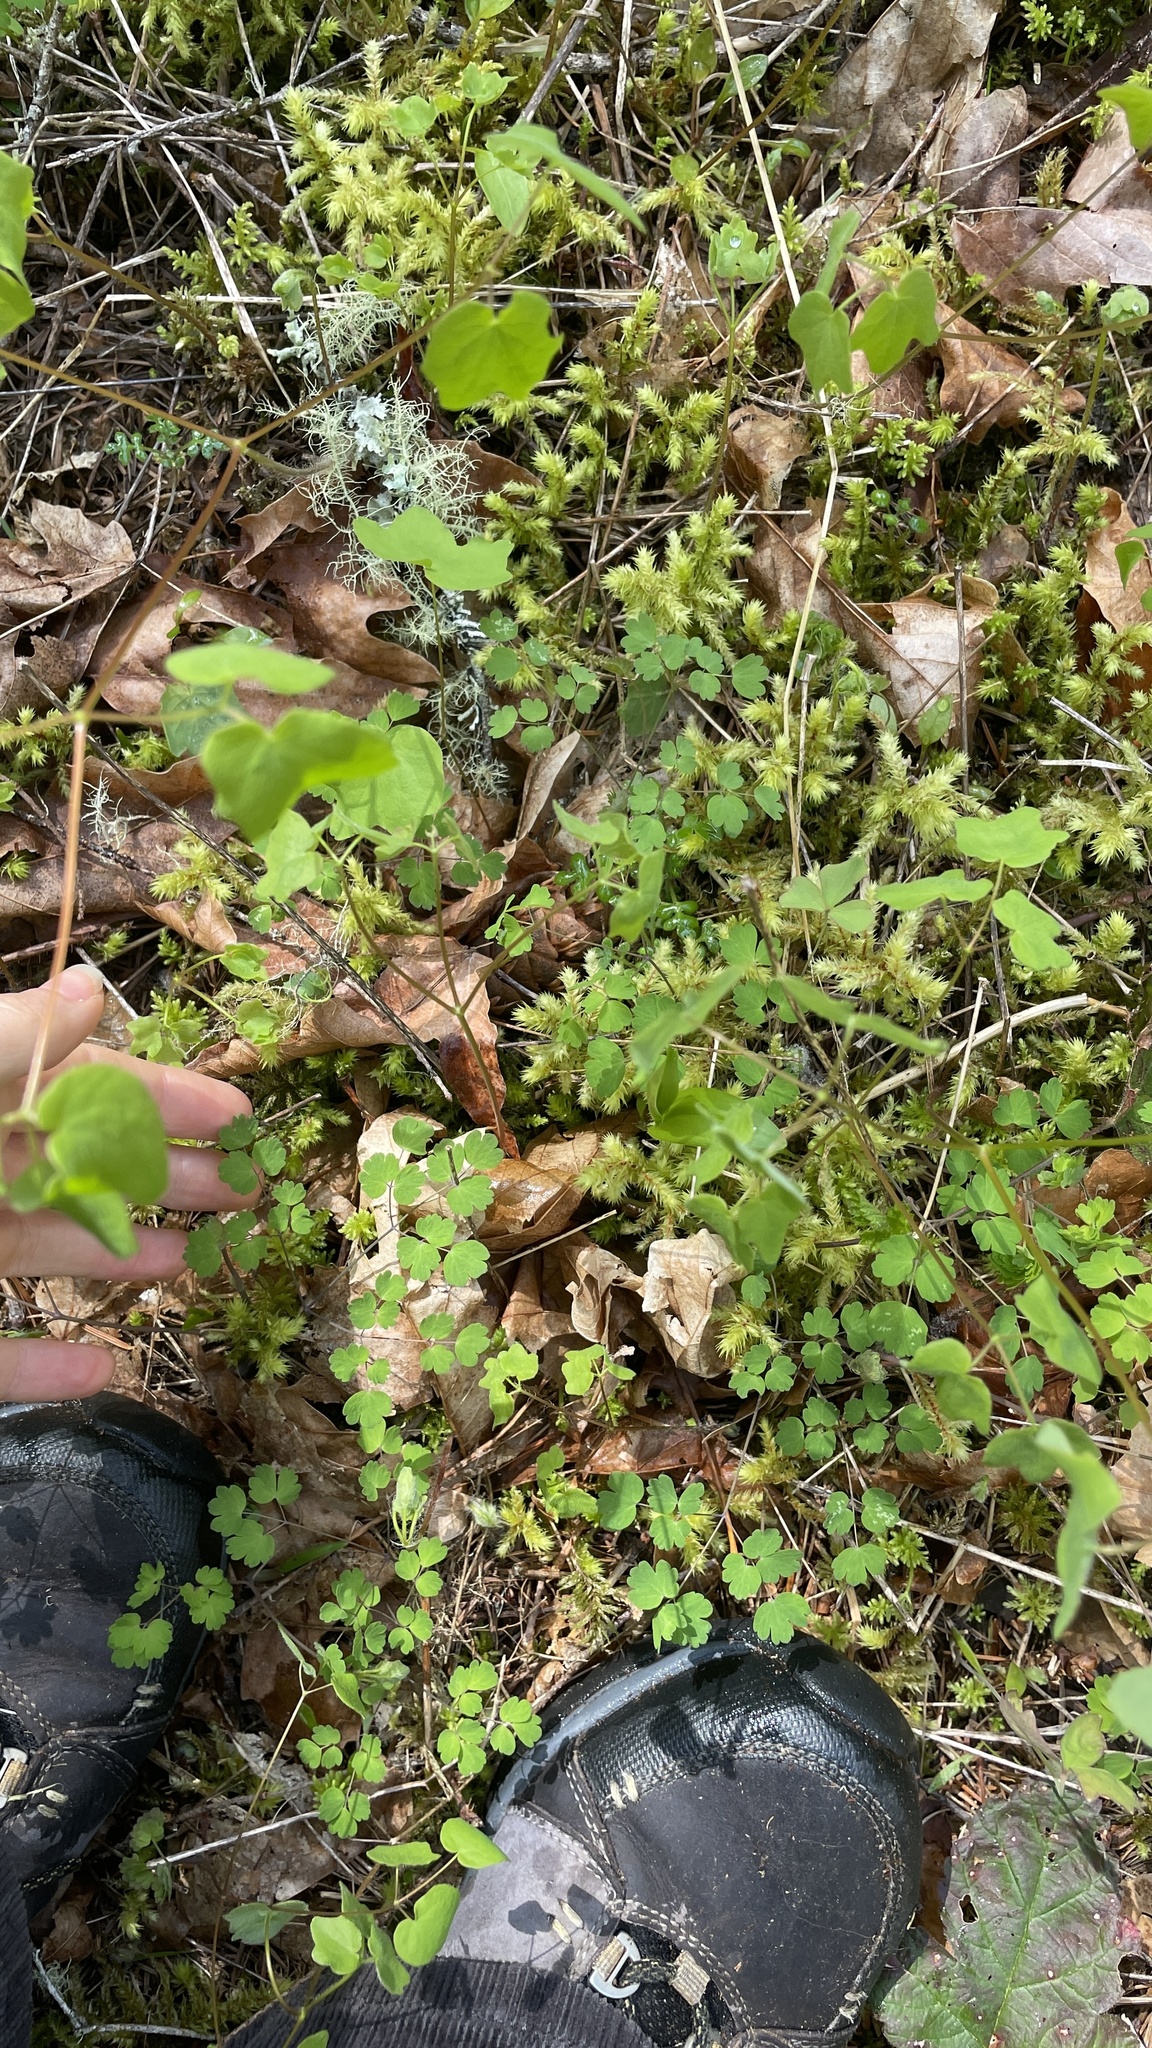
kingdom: Plantae
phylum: Tracheophyta
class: Magnoliopsida
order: Ranunculales
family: Ranunculaceae
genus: Thalictrum
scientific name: Thalictrum occidentale
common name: Western meadow-rue
